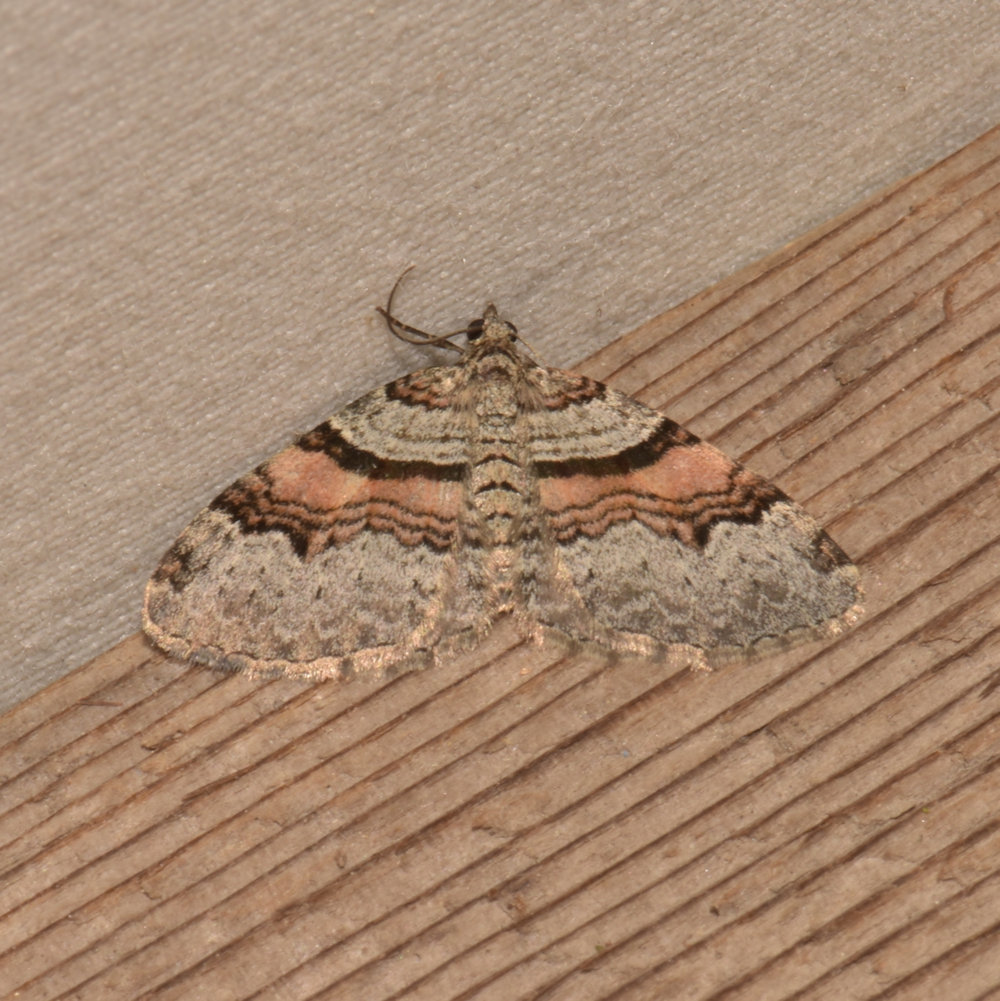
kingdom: Animalia
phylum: Arthropoda
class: Insecta
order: Lepidoptera
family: Geometridae
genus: Xanthorhoe
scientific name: Xanthorhoe labradorensis
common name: Labrador carpet
